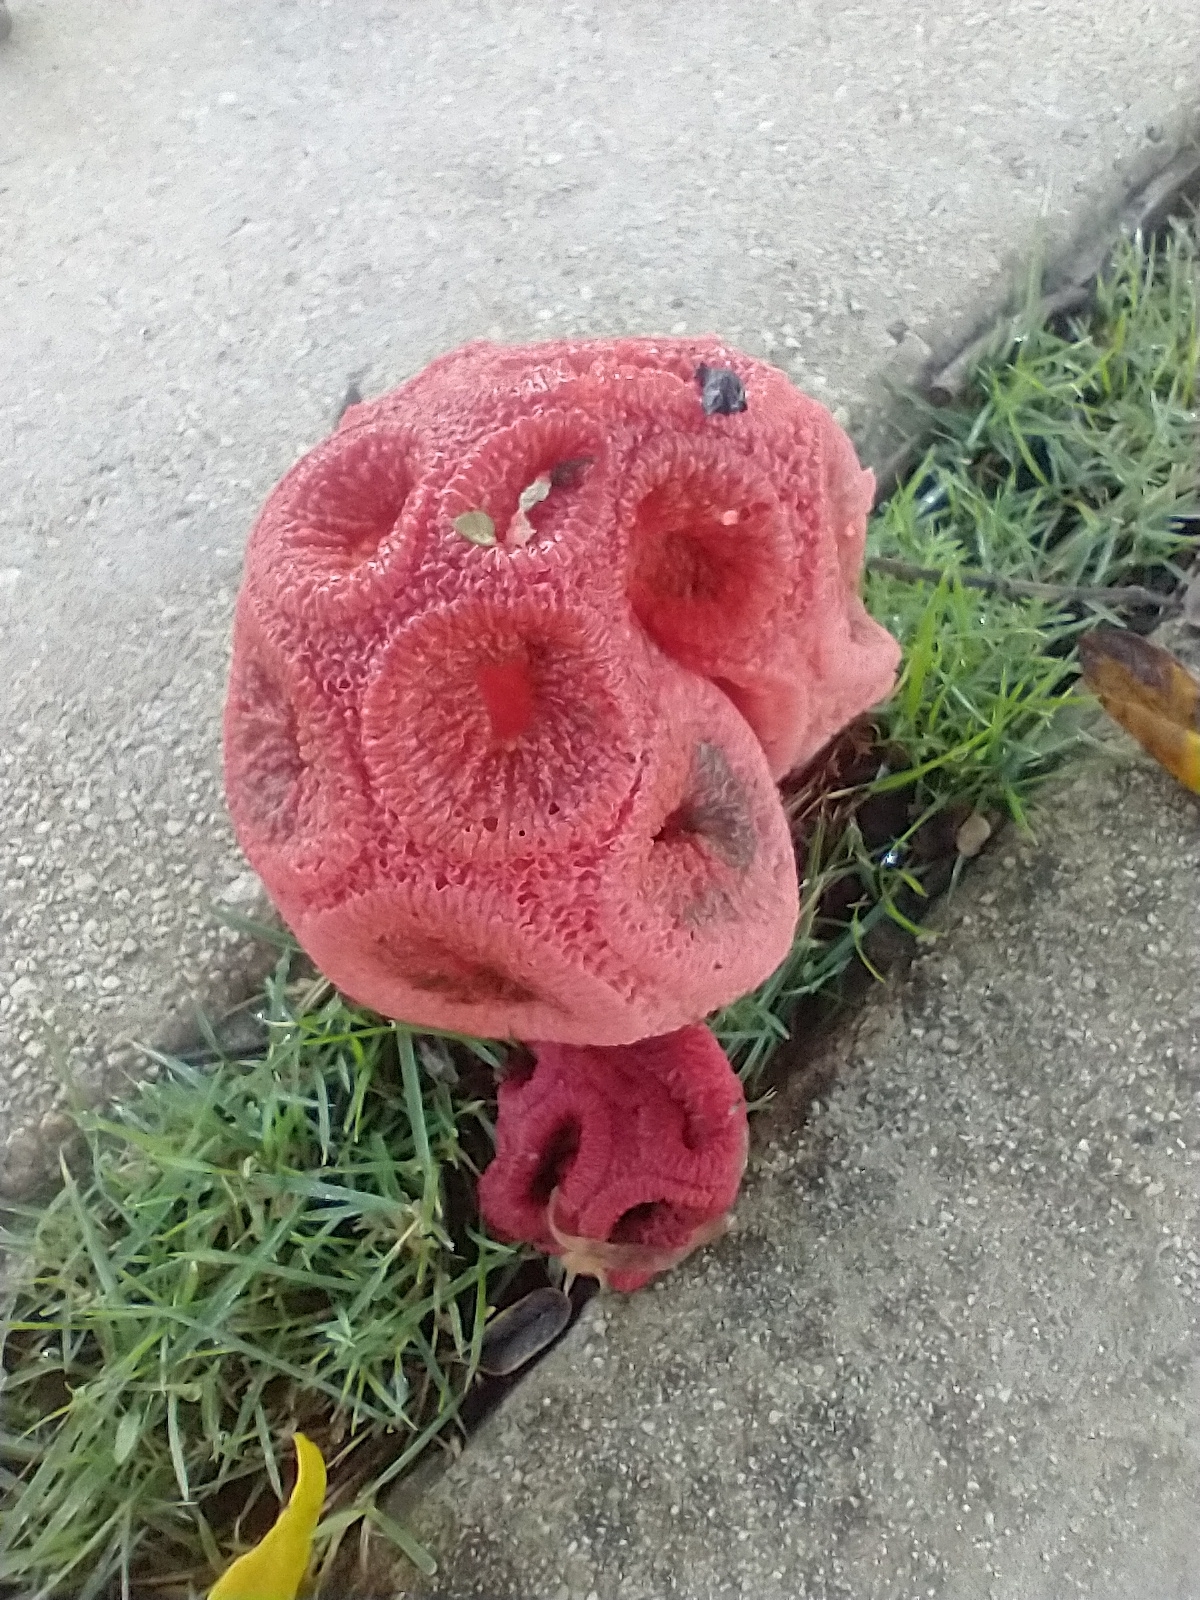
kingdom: Fungi
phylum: Basidiomycota
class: Agaricomycetes
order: Phallales
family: Phallaceae
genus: Clathrus
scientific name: Clathrus crispatus
